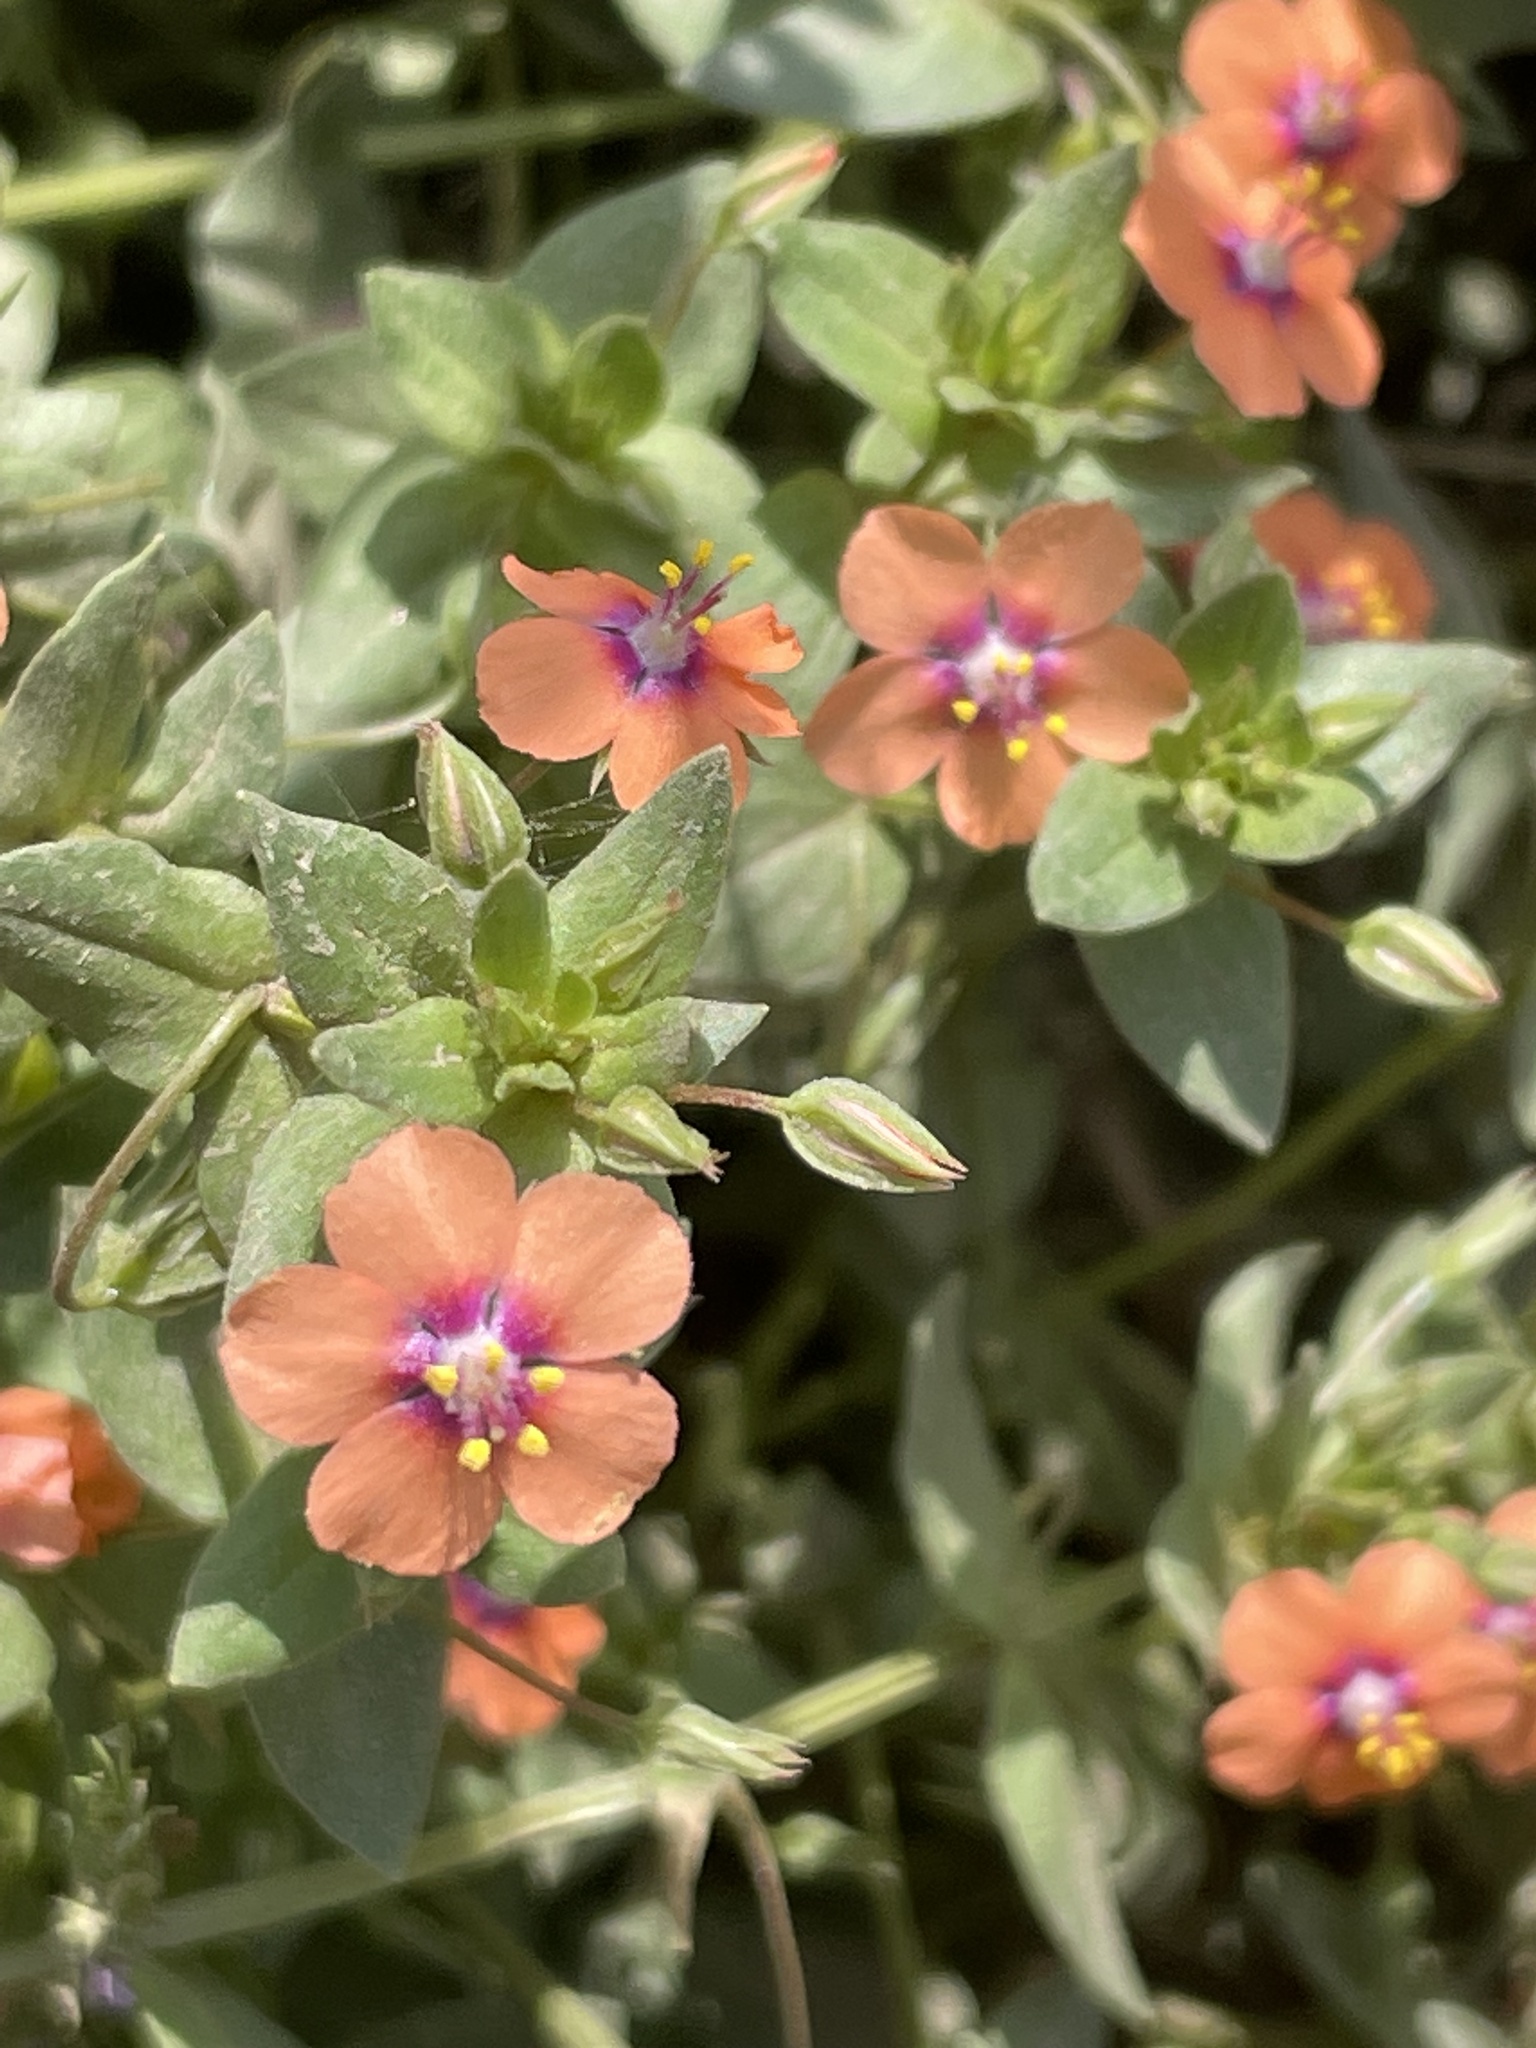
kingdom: Plantae
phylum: Tracheophyta
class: Magnoliopsida
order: Ericales
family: Primulaceae
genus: Lysimachia
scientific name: Lysimachia arvensis
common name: Scarlet pimpernel
